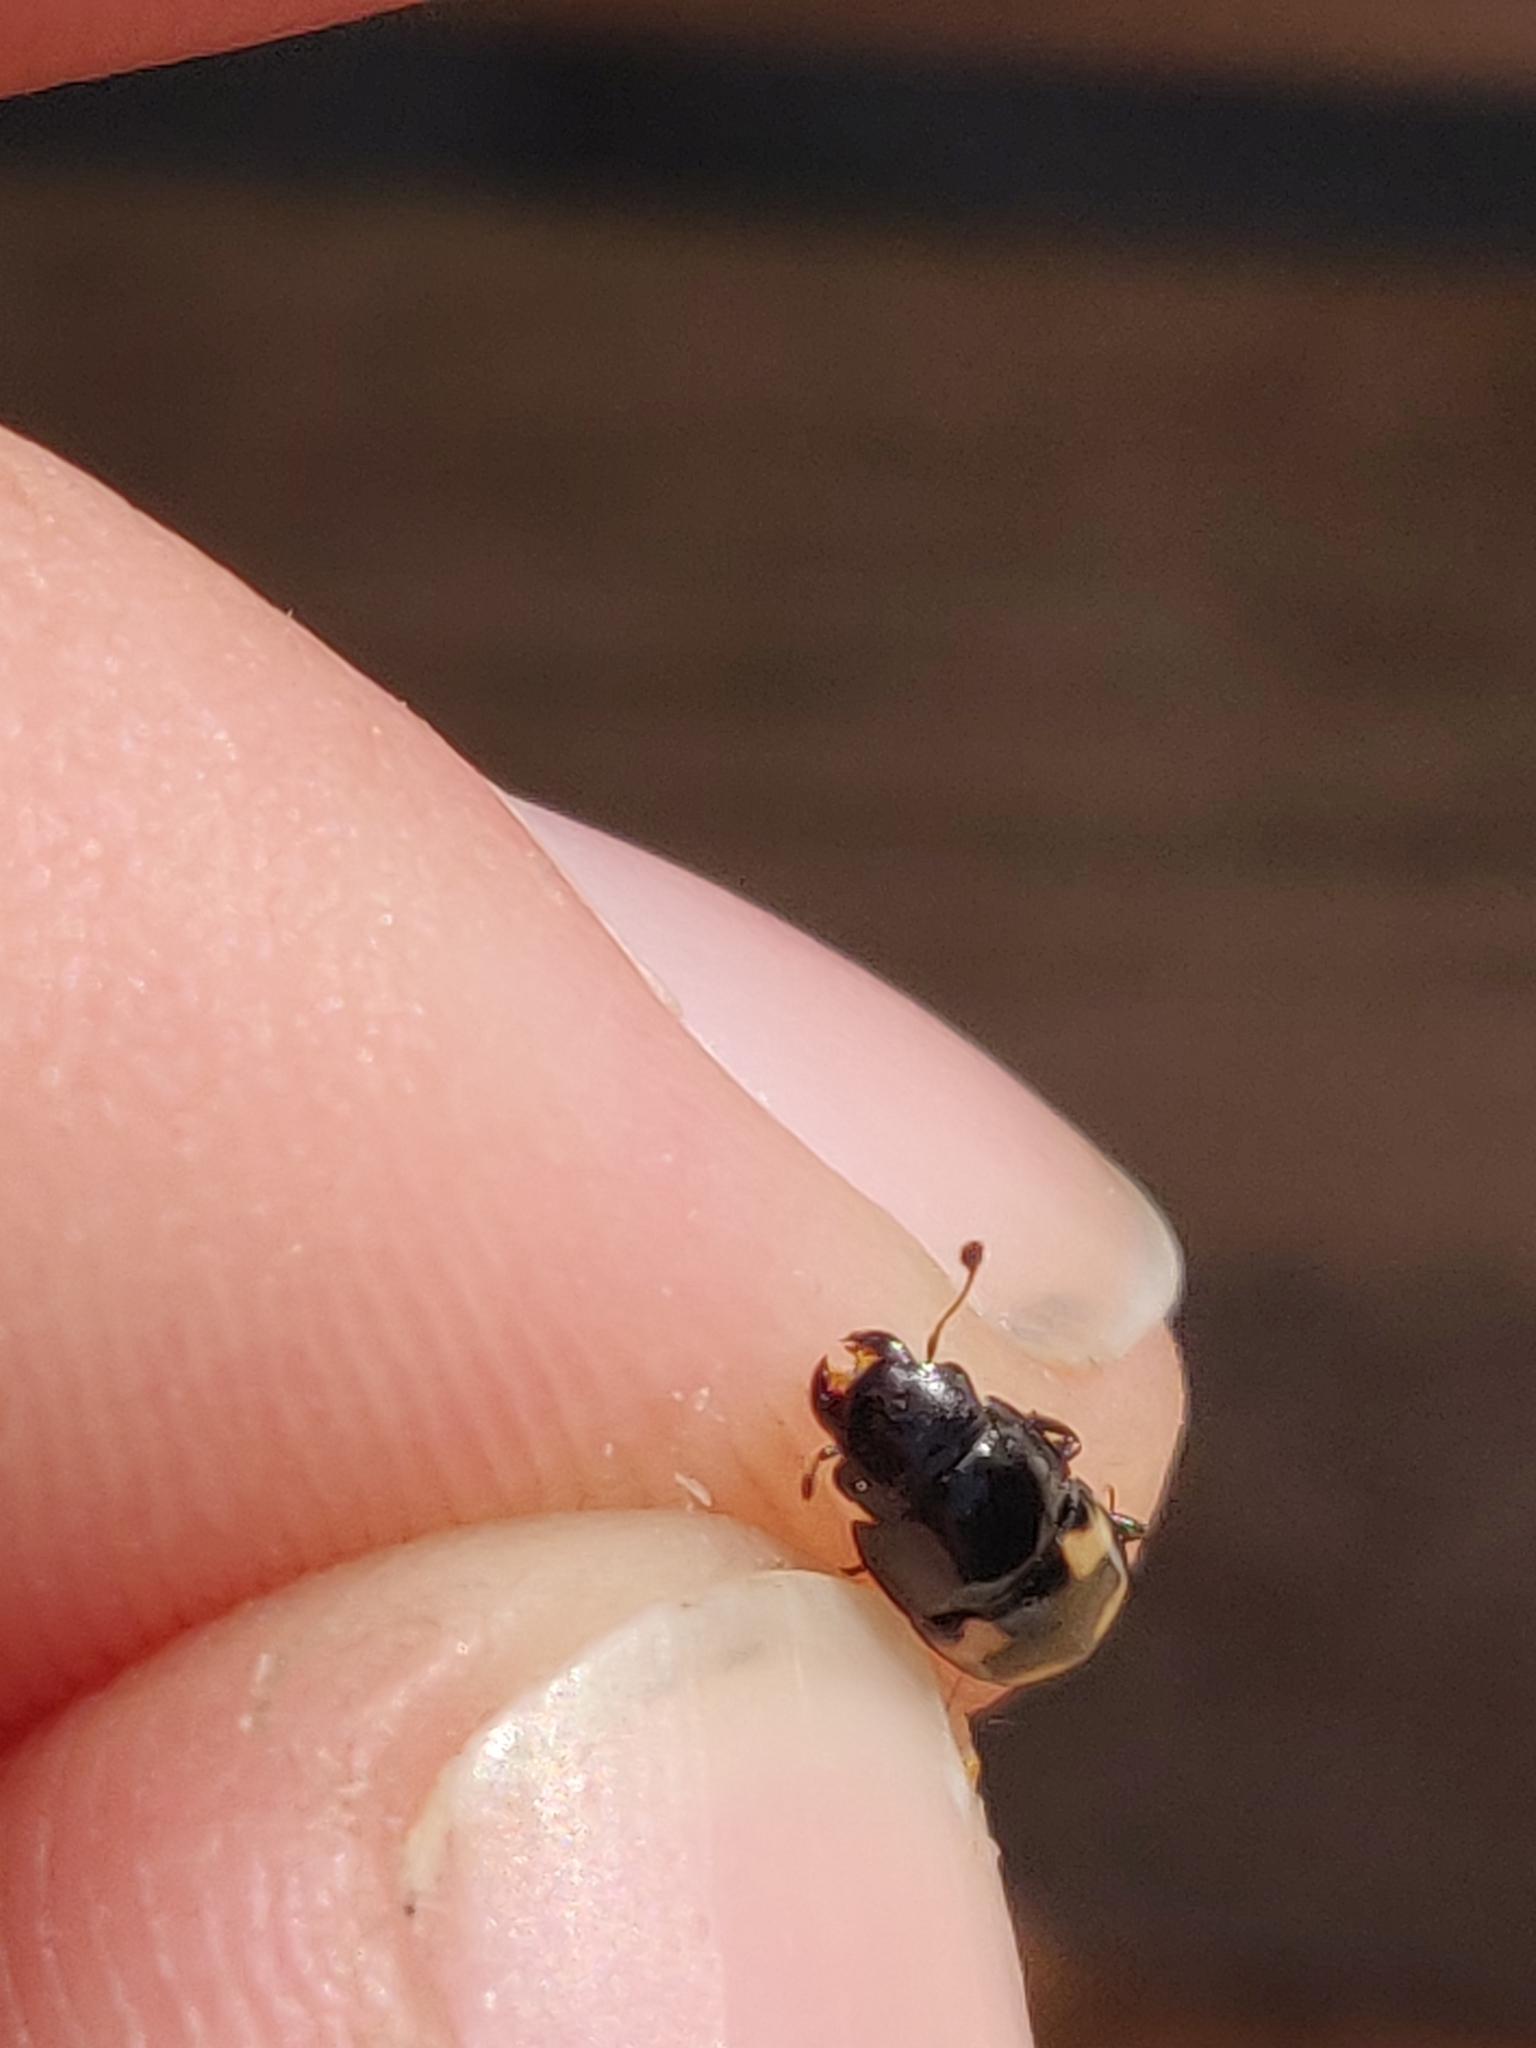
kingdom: Animalia
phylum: Arthropoda
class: Insecta
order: Coleoptera
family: Nitidulidae
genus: Glischrochilus
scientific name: Glischrochilus quadrisignatus
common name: Picnic beetle
